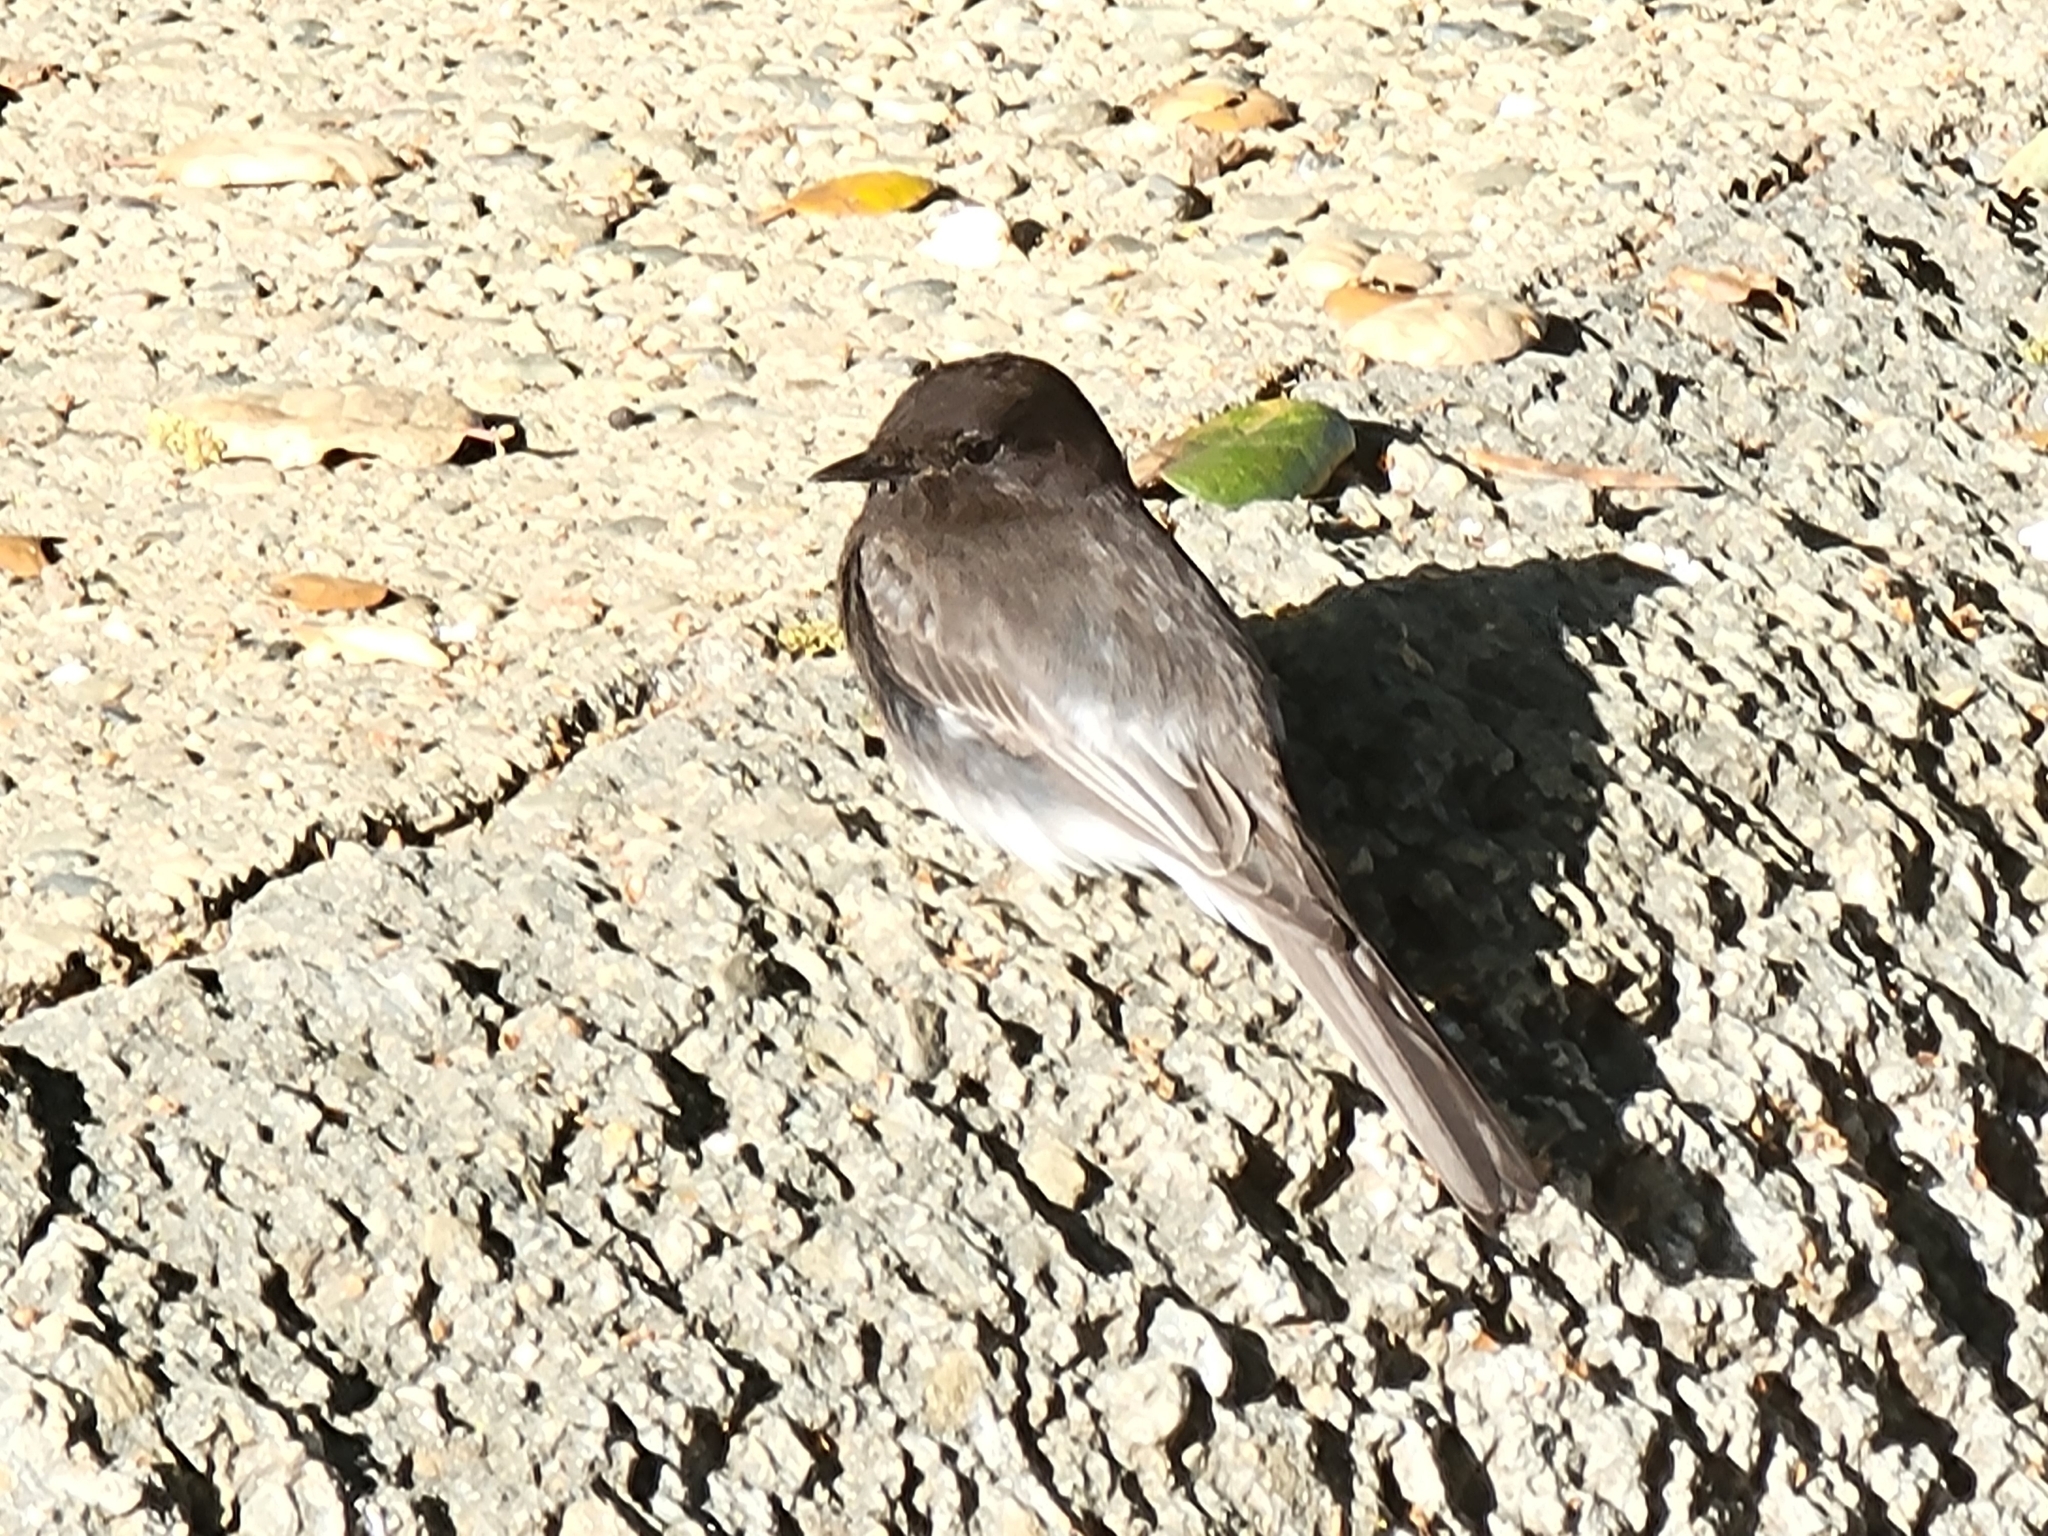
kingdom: Animalia
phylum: Chordata
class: Aves
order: Passeriformes
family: Tyrannidae
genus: Sayornis
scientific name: Sayornis nigricans
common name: Black phoebe
